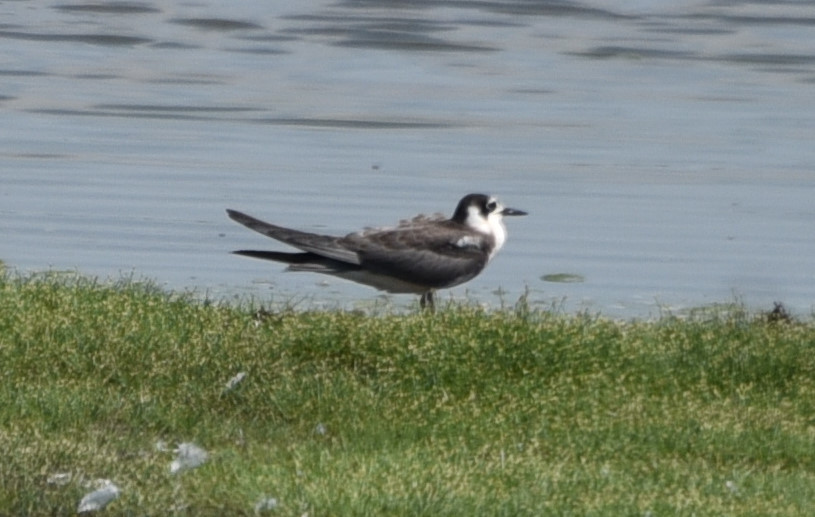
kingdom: Animalia
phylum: Chordata
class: Aves
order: Charadriiformes
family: Laridae
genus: Chlidonias
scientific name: Chlidonias niger
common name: Black tern
